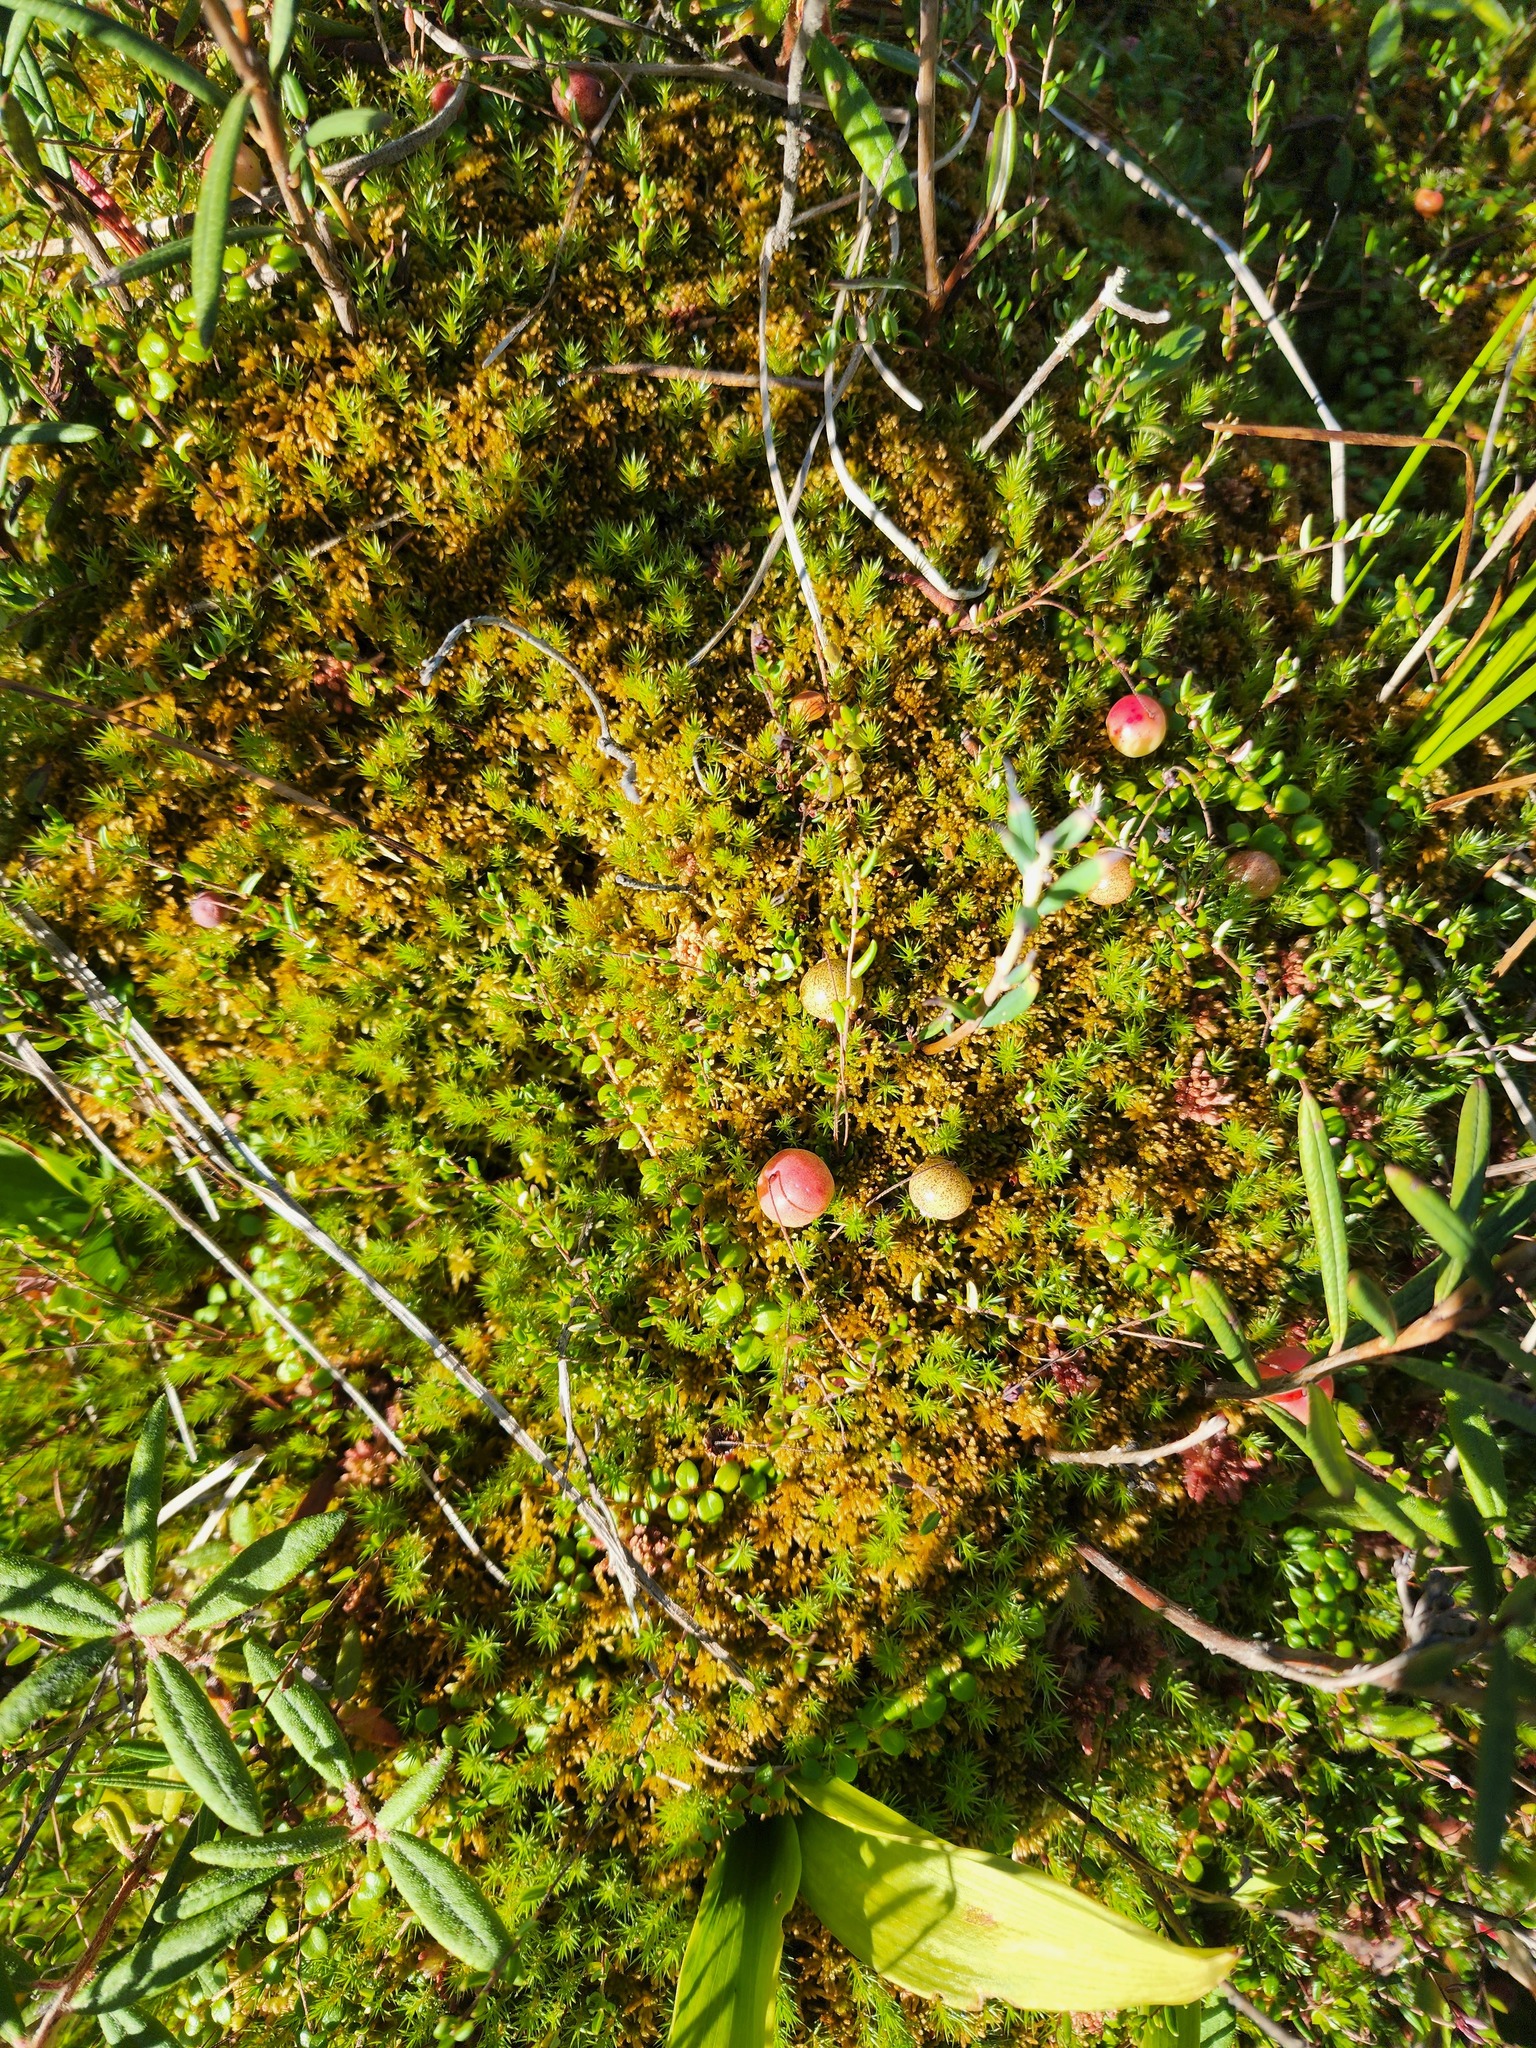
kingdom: Plantae
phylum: Tracheophyta
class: Magnoliopsida
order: Ericales
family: Ericaceae
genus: Vaccinium
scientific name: Vaccinium oxycoccos
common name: Cranberry
